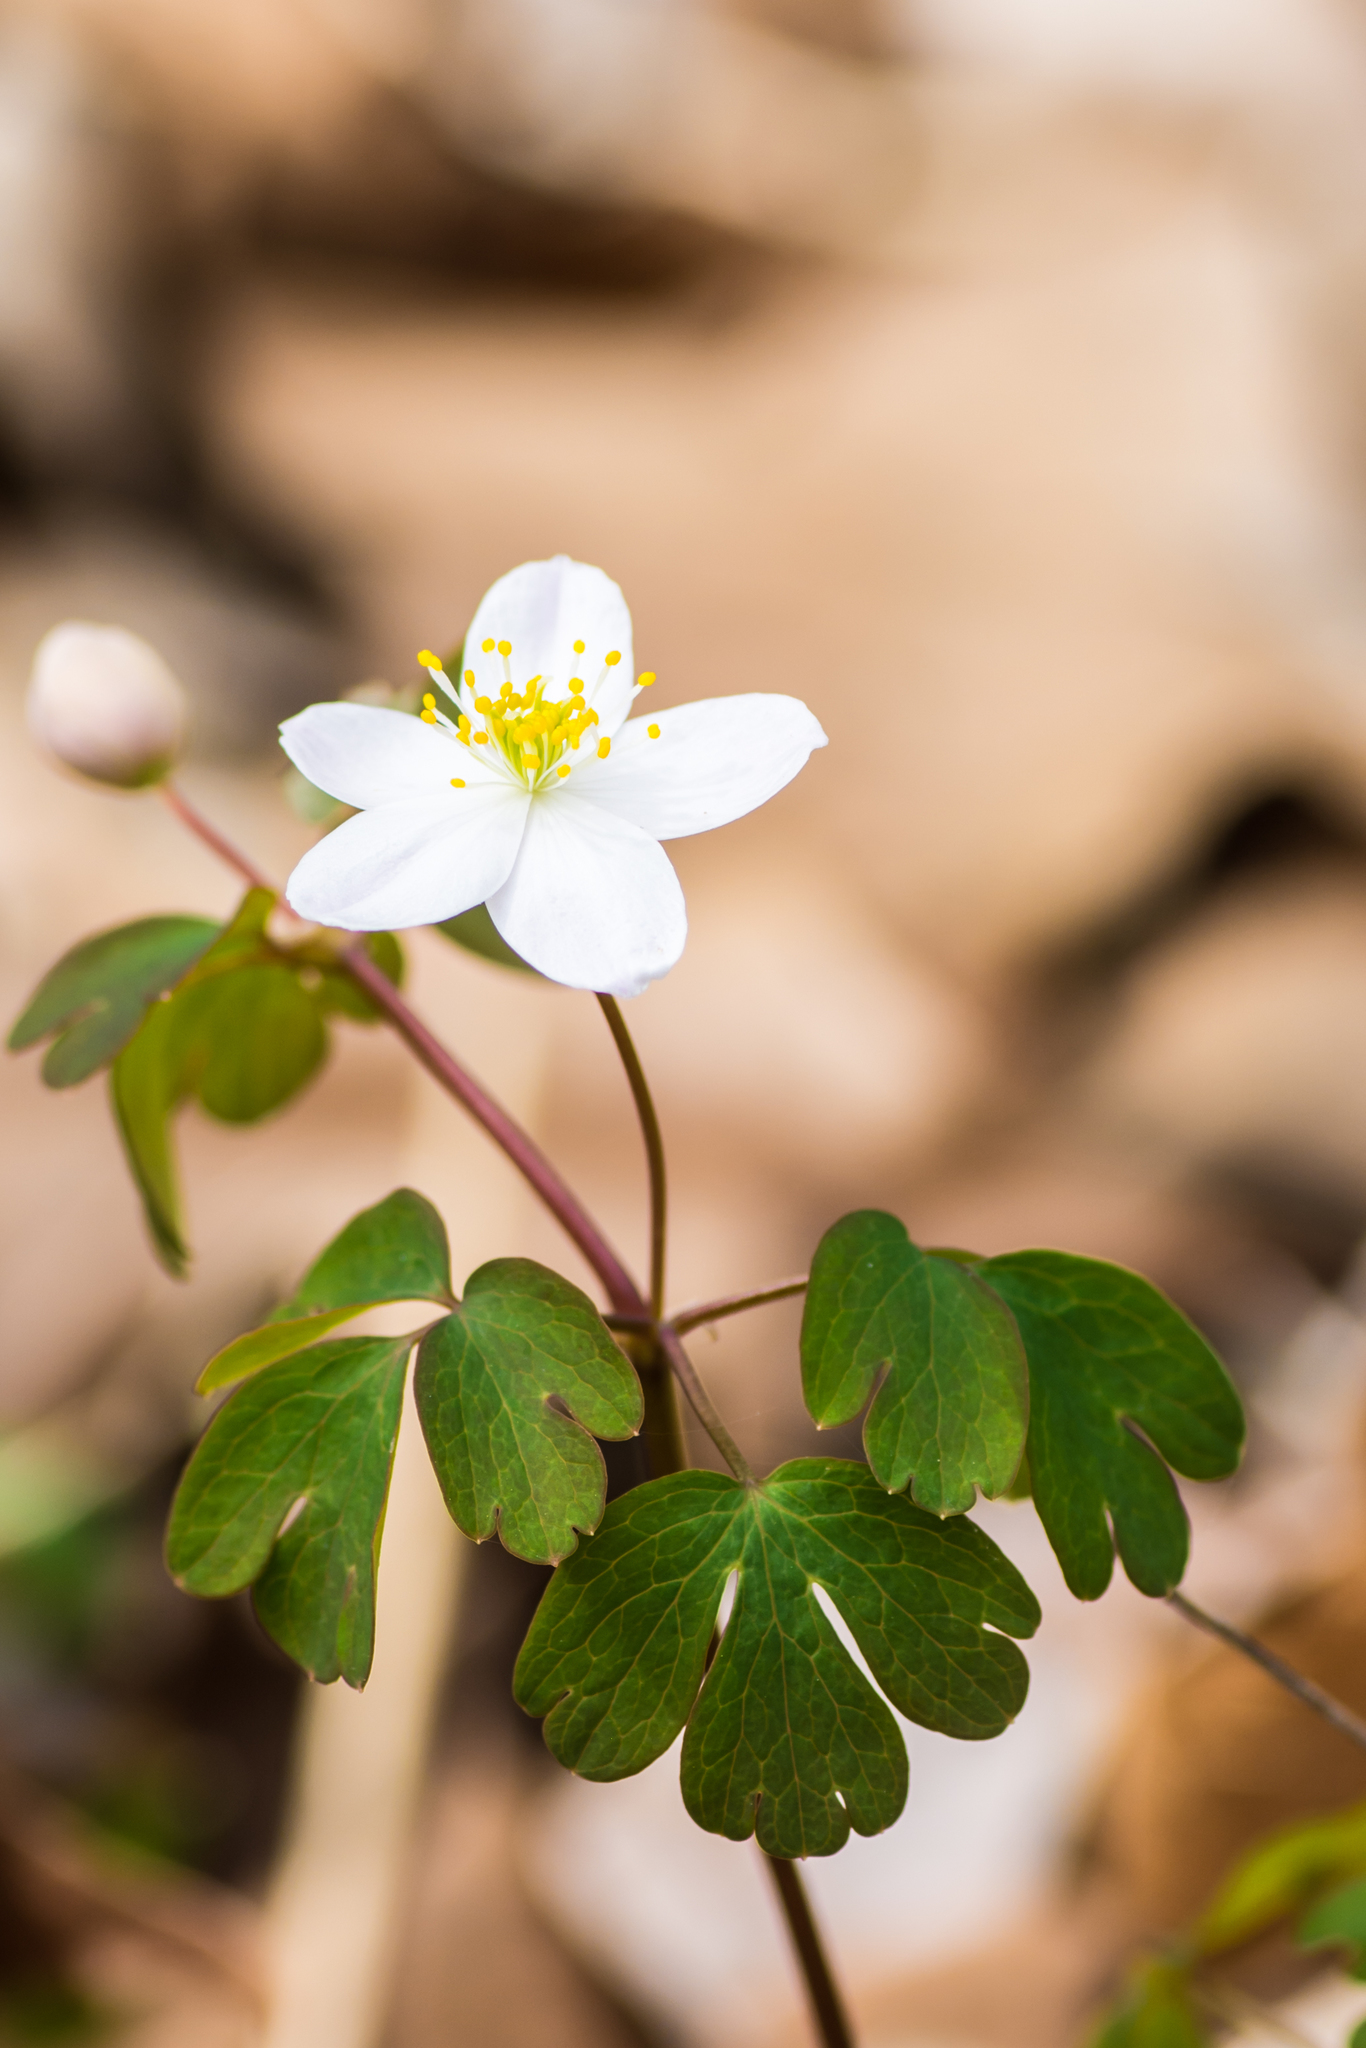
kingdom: Plantae
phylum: Tracheophyta
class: Magnoliopsida
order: Ranunculales
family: Ranunculaceae
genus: Enemion
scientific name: Enemion biternatum
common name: Eastern false rue-anemone
